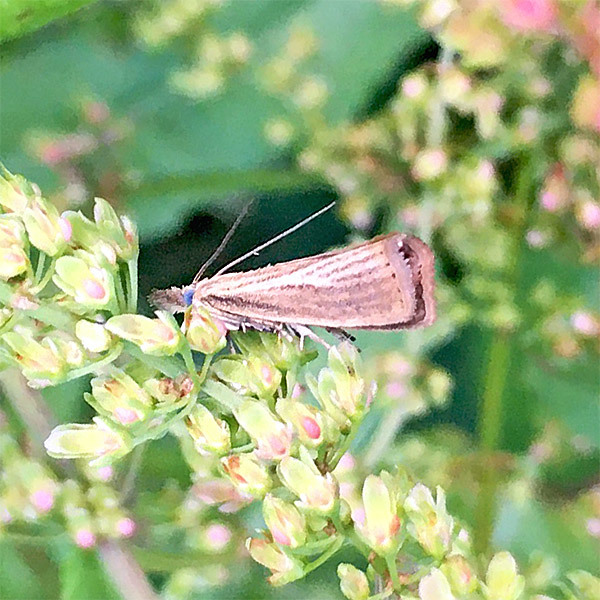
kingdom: Animalia
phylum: Arthropoda
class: Insecta
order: Lepidoptera
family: Crambidae
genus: Agriphila
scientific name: Agriphila straminella
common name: Straw grass-veneer
